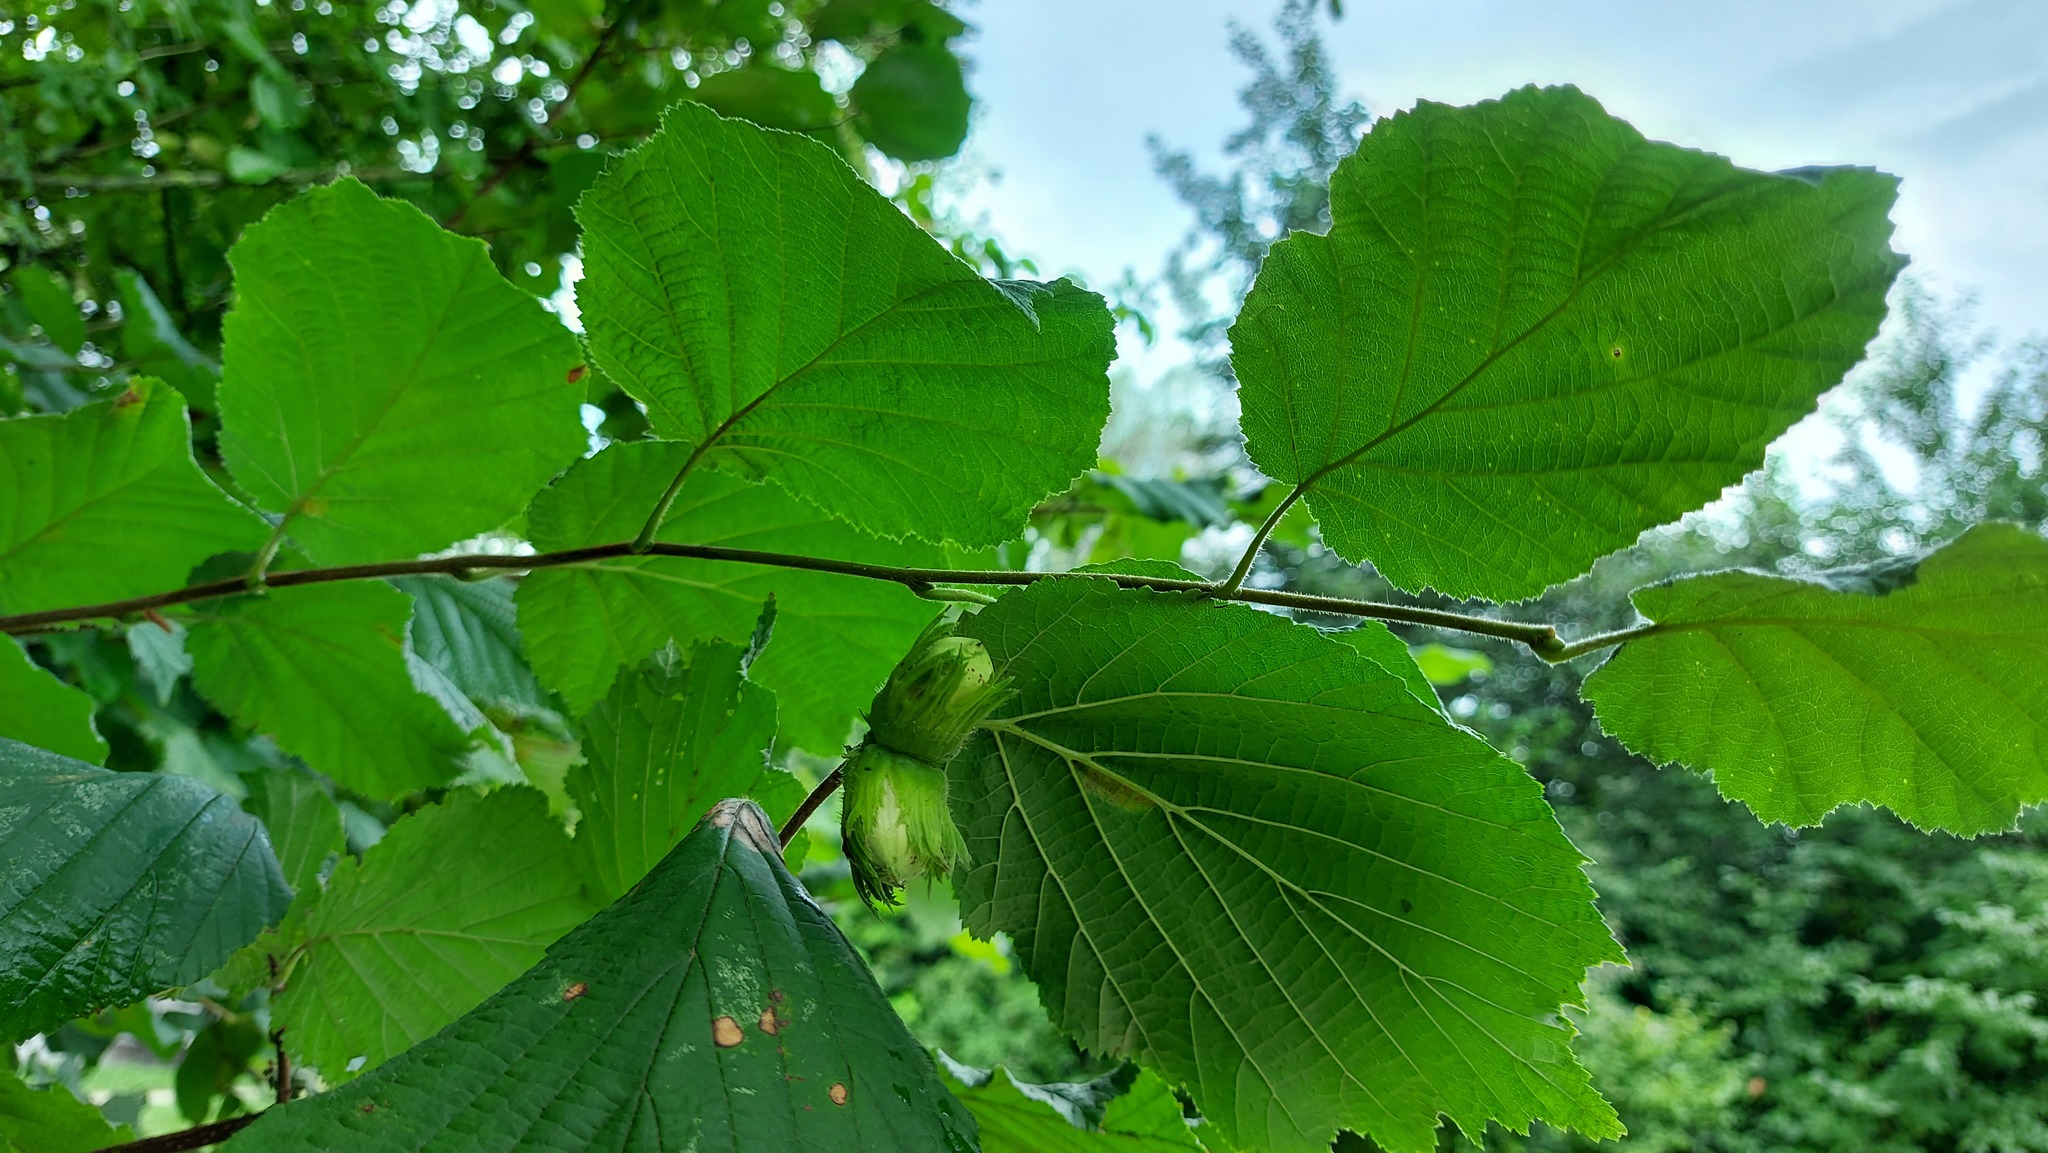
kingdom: Plantae
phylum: Tracheophyta
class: Magnoliopsida
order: Fagales
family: Betulaceae
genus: Corylus
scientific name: Corylus avellana
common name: European hazel
